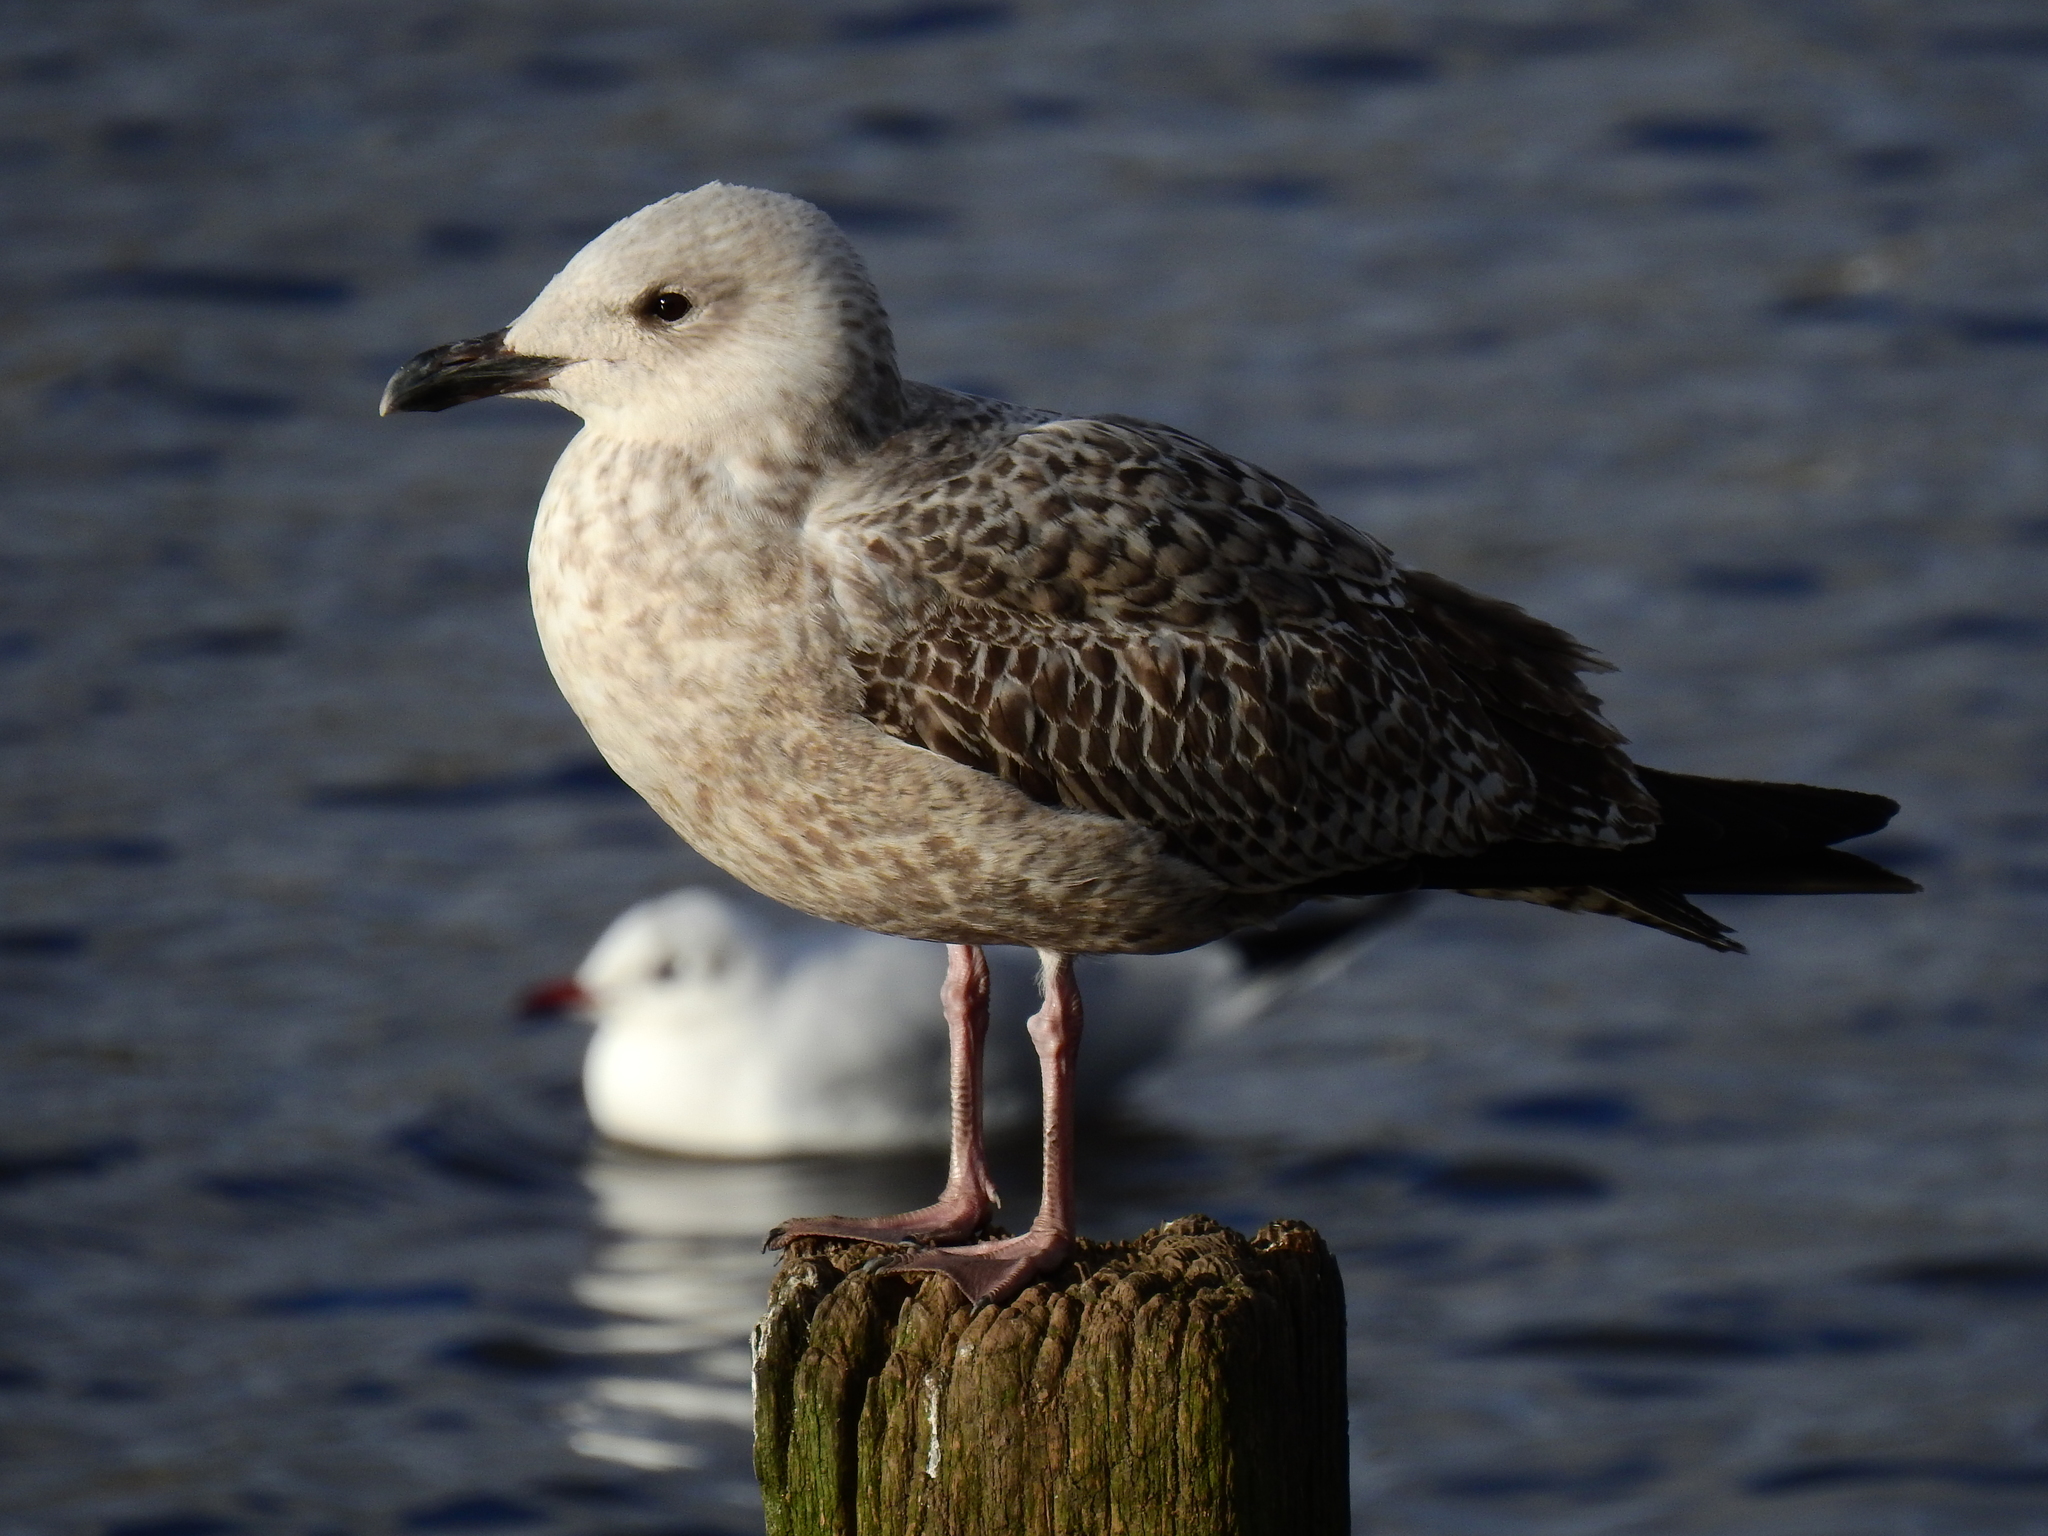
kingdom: Animalia
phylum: Chordata
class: Aves
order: Charadriiformes
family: Laridae
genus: Larus
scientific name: Larus argentatus
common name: Herring gull
